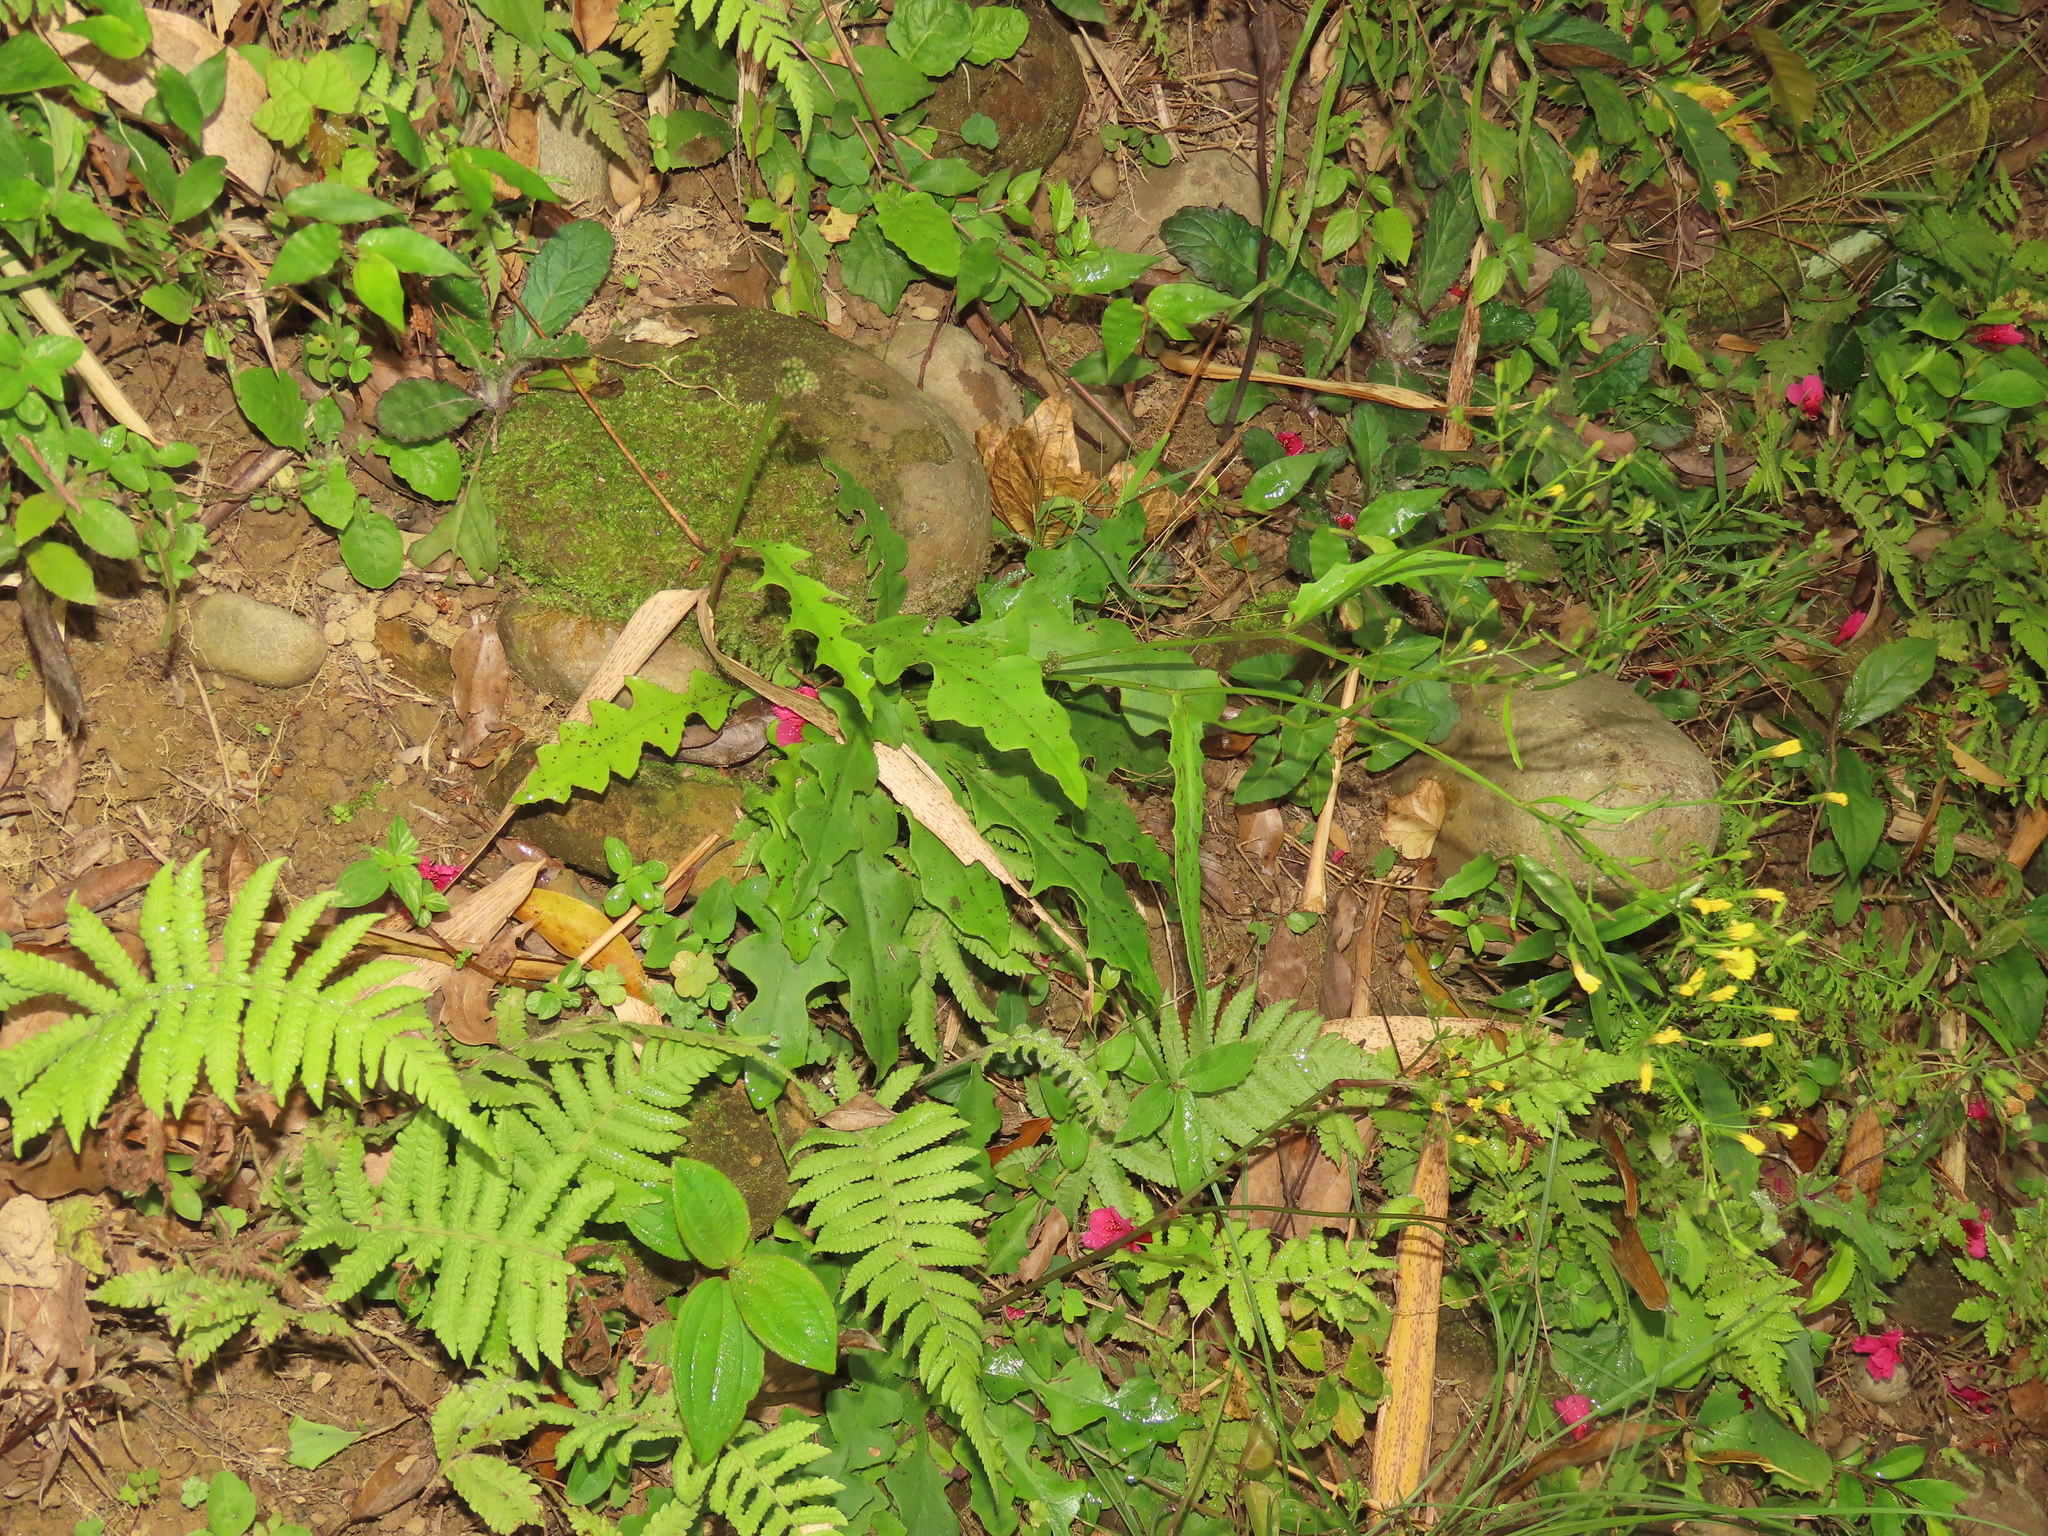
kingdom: Plantae
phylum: Tracheophyta
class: Magnoliopsida
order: Asterales
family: Asteraceae
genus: Ixeridium
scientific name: Ixeridium laevigatum
